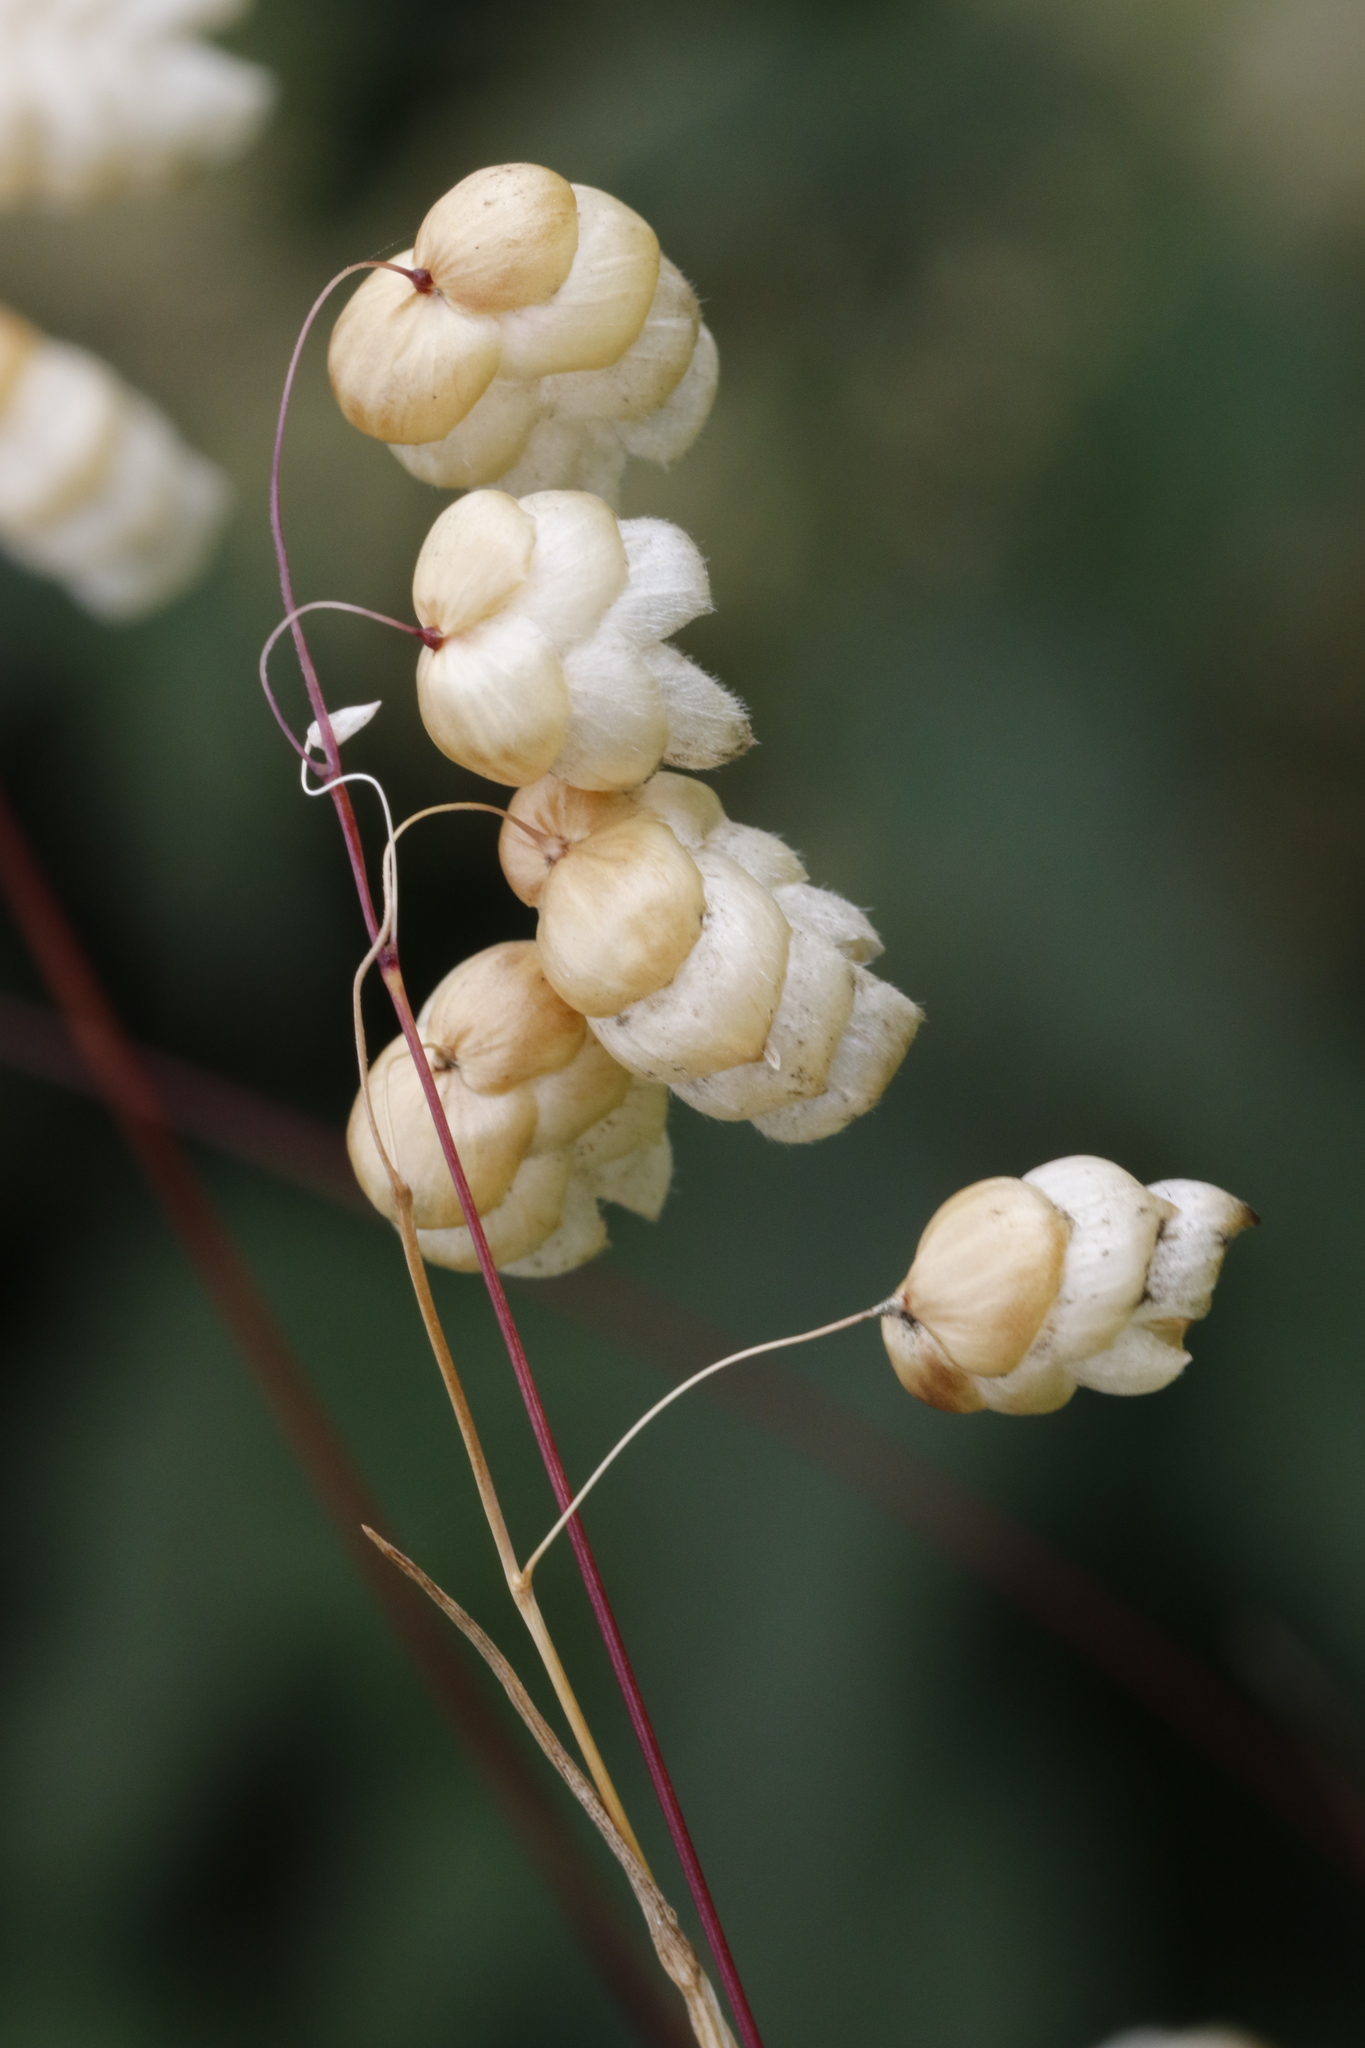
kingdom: Plantae
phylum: Tracheophyta
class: Liliopsida
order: Poales
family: Poaceae
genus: Briza
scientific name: Briza maxima
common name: Big quakinggrass
